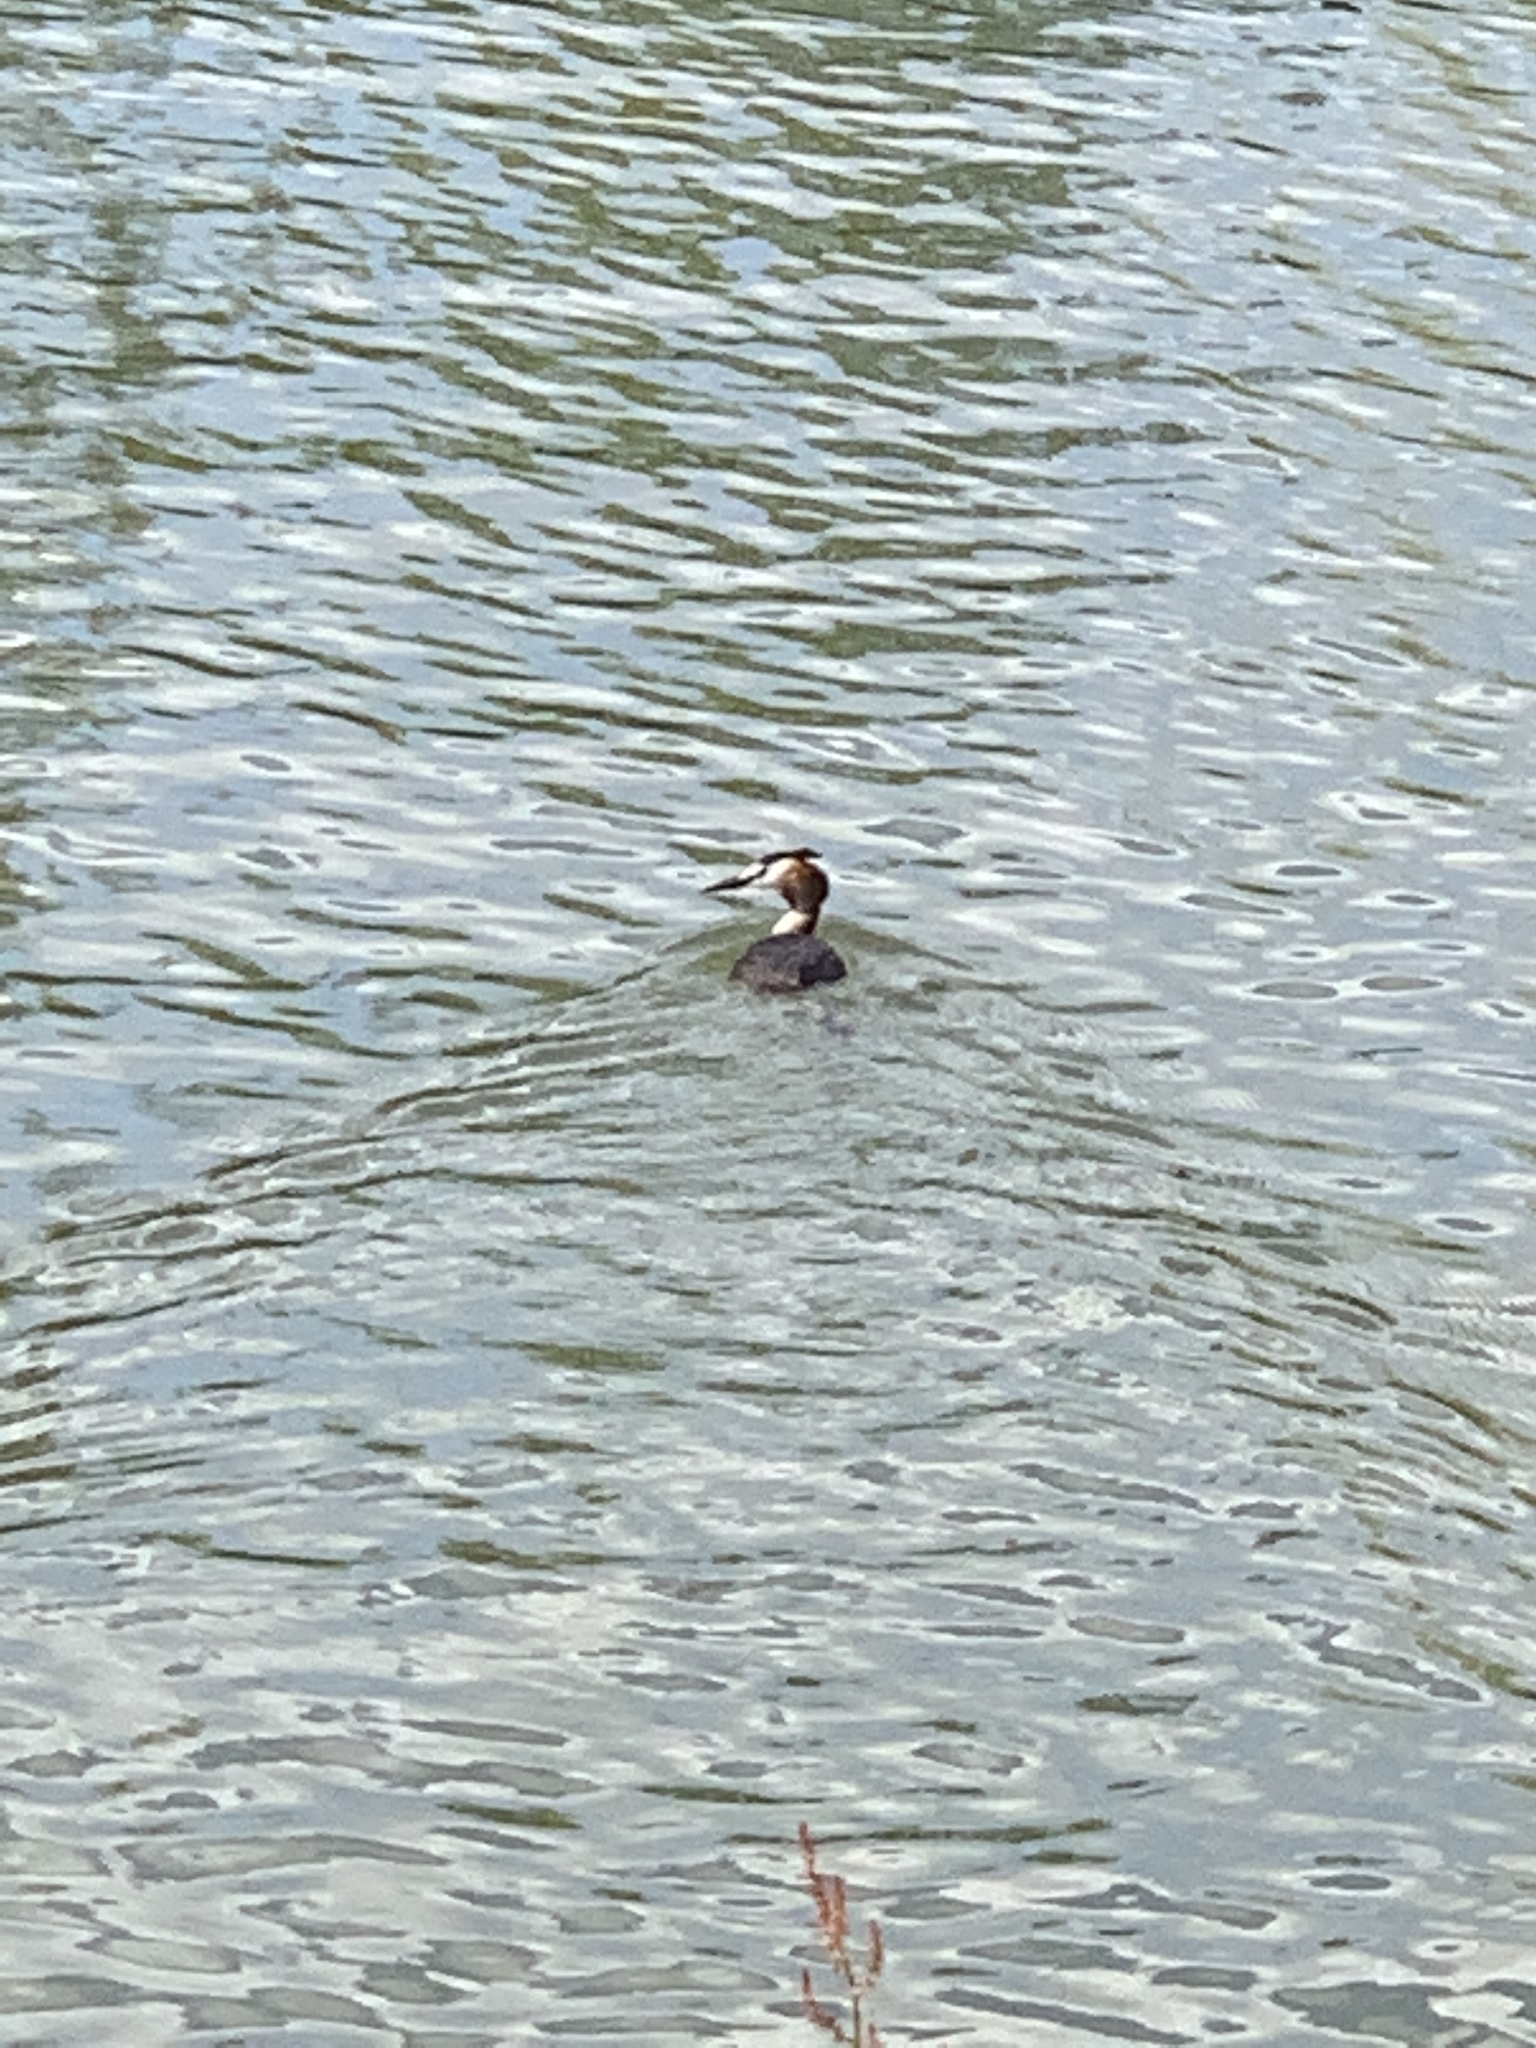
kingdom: Animalia
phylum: Chordata
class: Aves
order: Podicipediformes
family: Podicipedidae
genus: Podiceps
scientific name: Podiceps cristatus
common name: Great crested grebe
